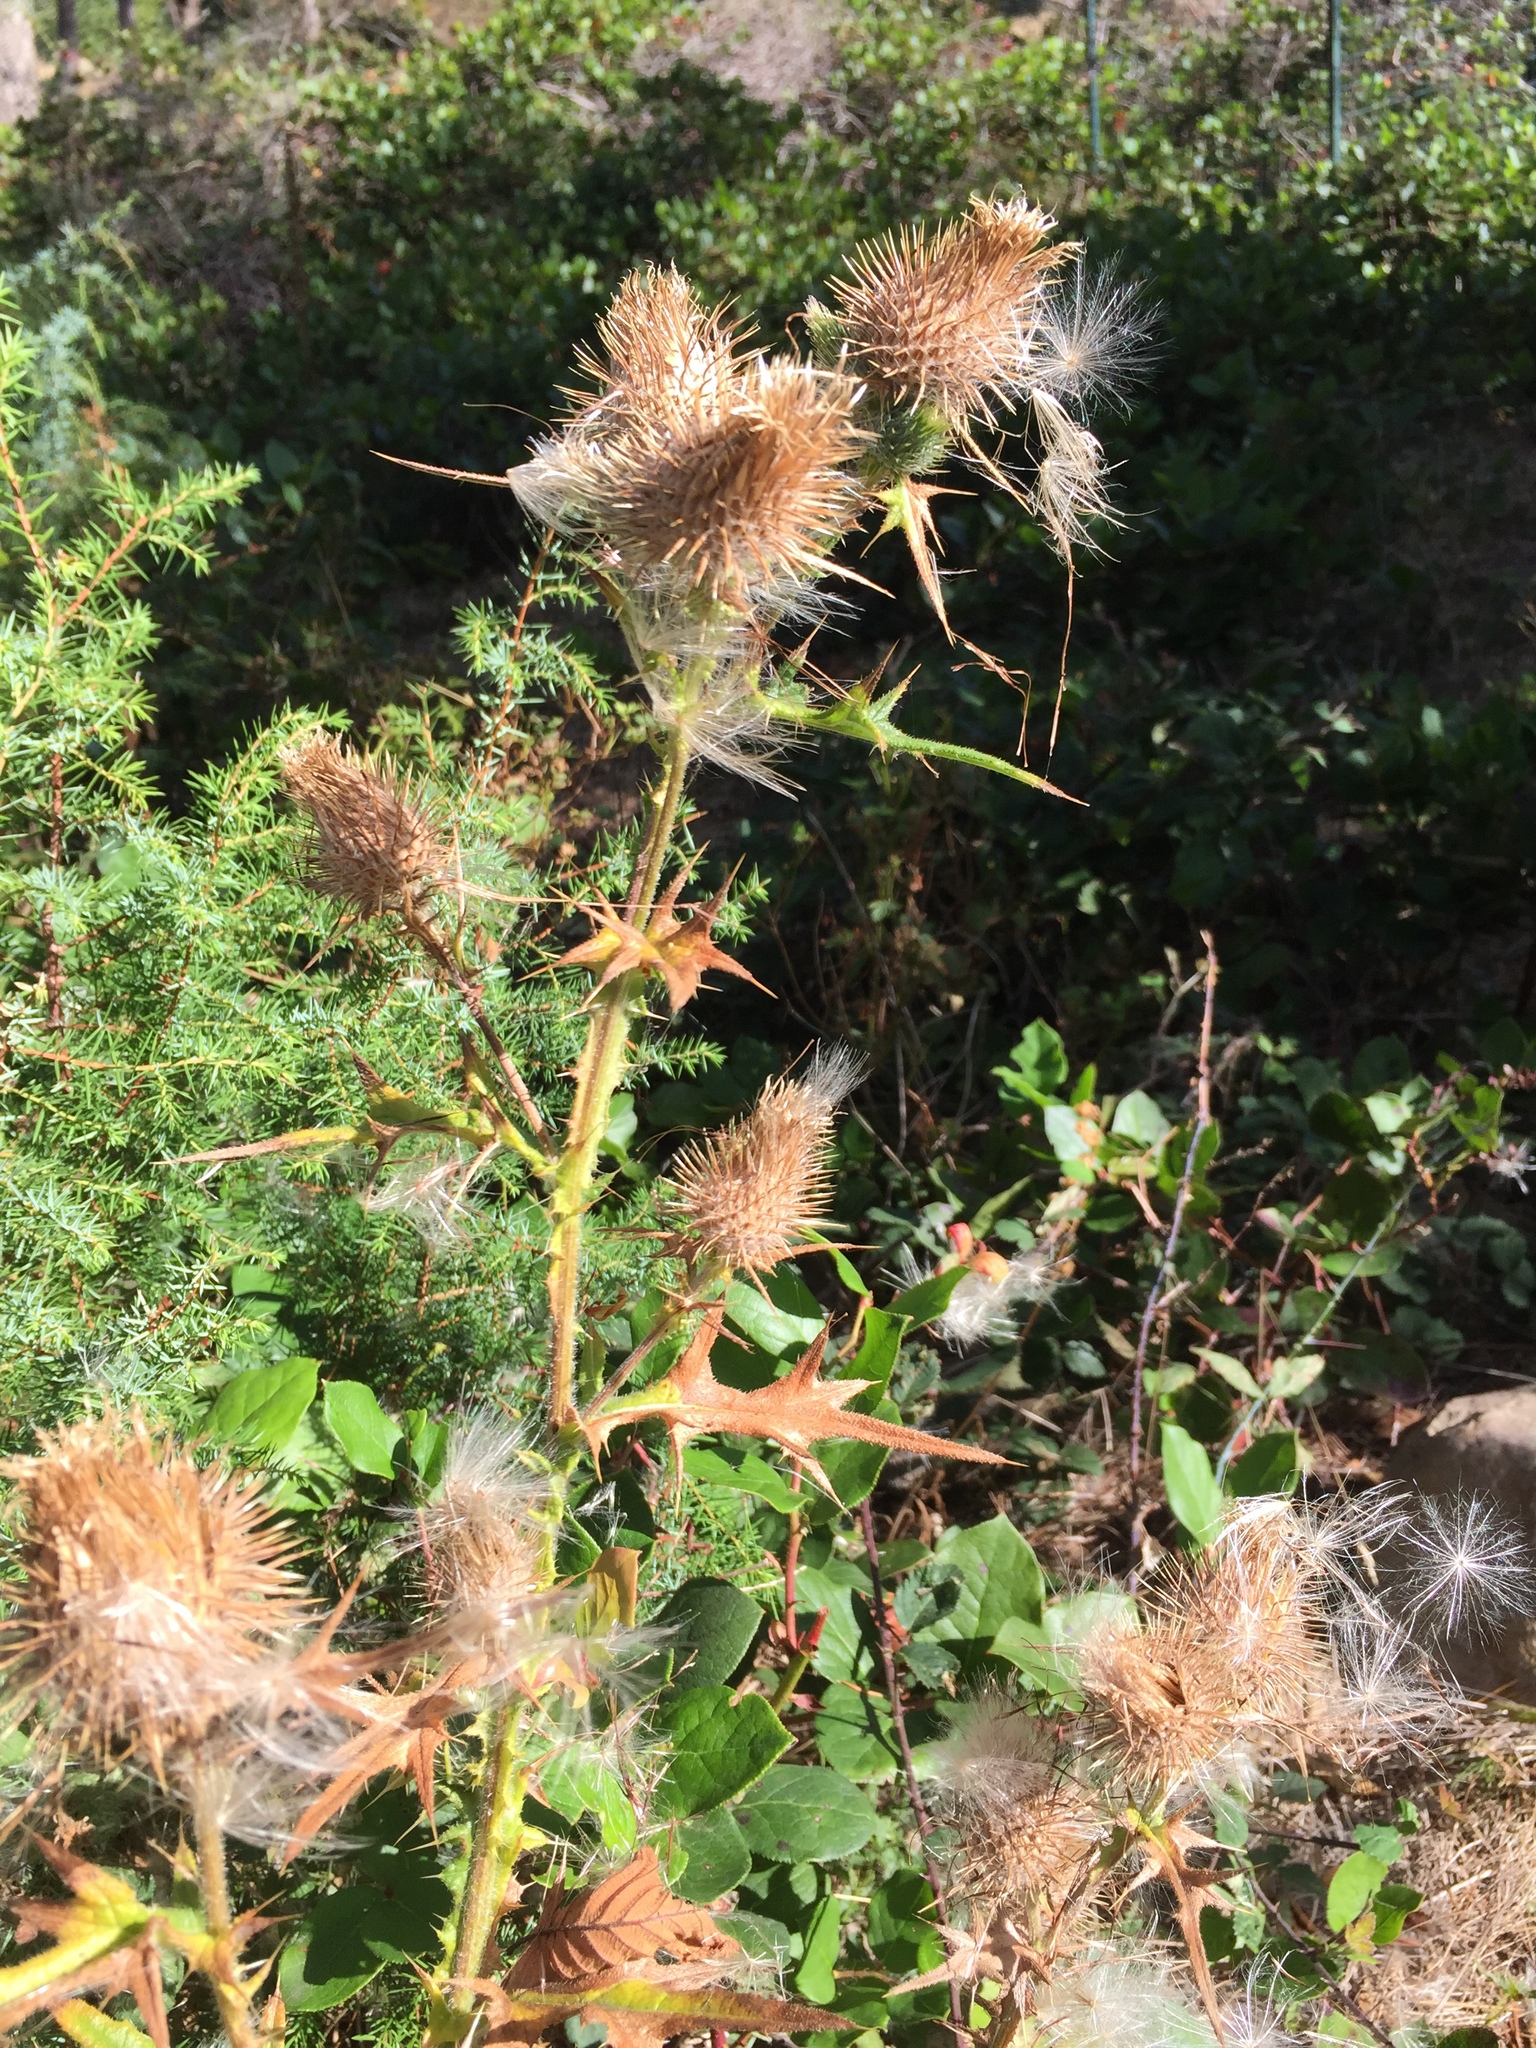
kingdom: Plantae
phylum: Tracheophyta
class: Magnoliopsida
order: Asterales
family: Asteraceae
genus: Cirsium
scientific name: Cirsium vulgare
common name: Bull thistle
